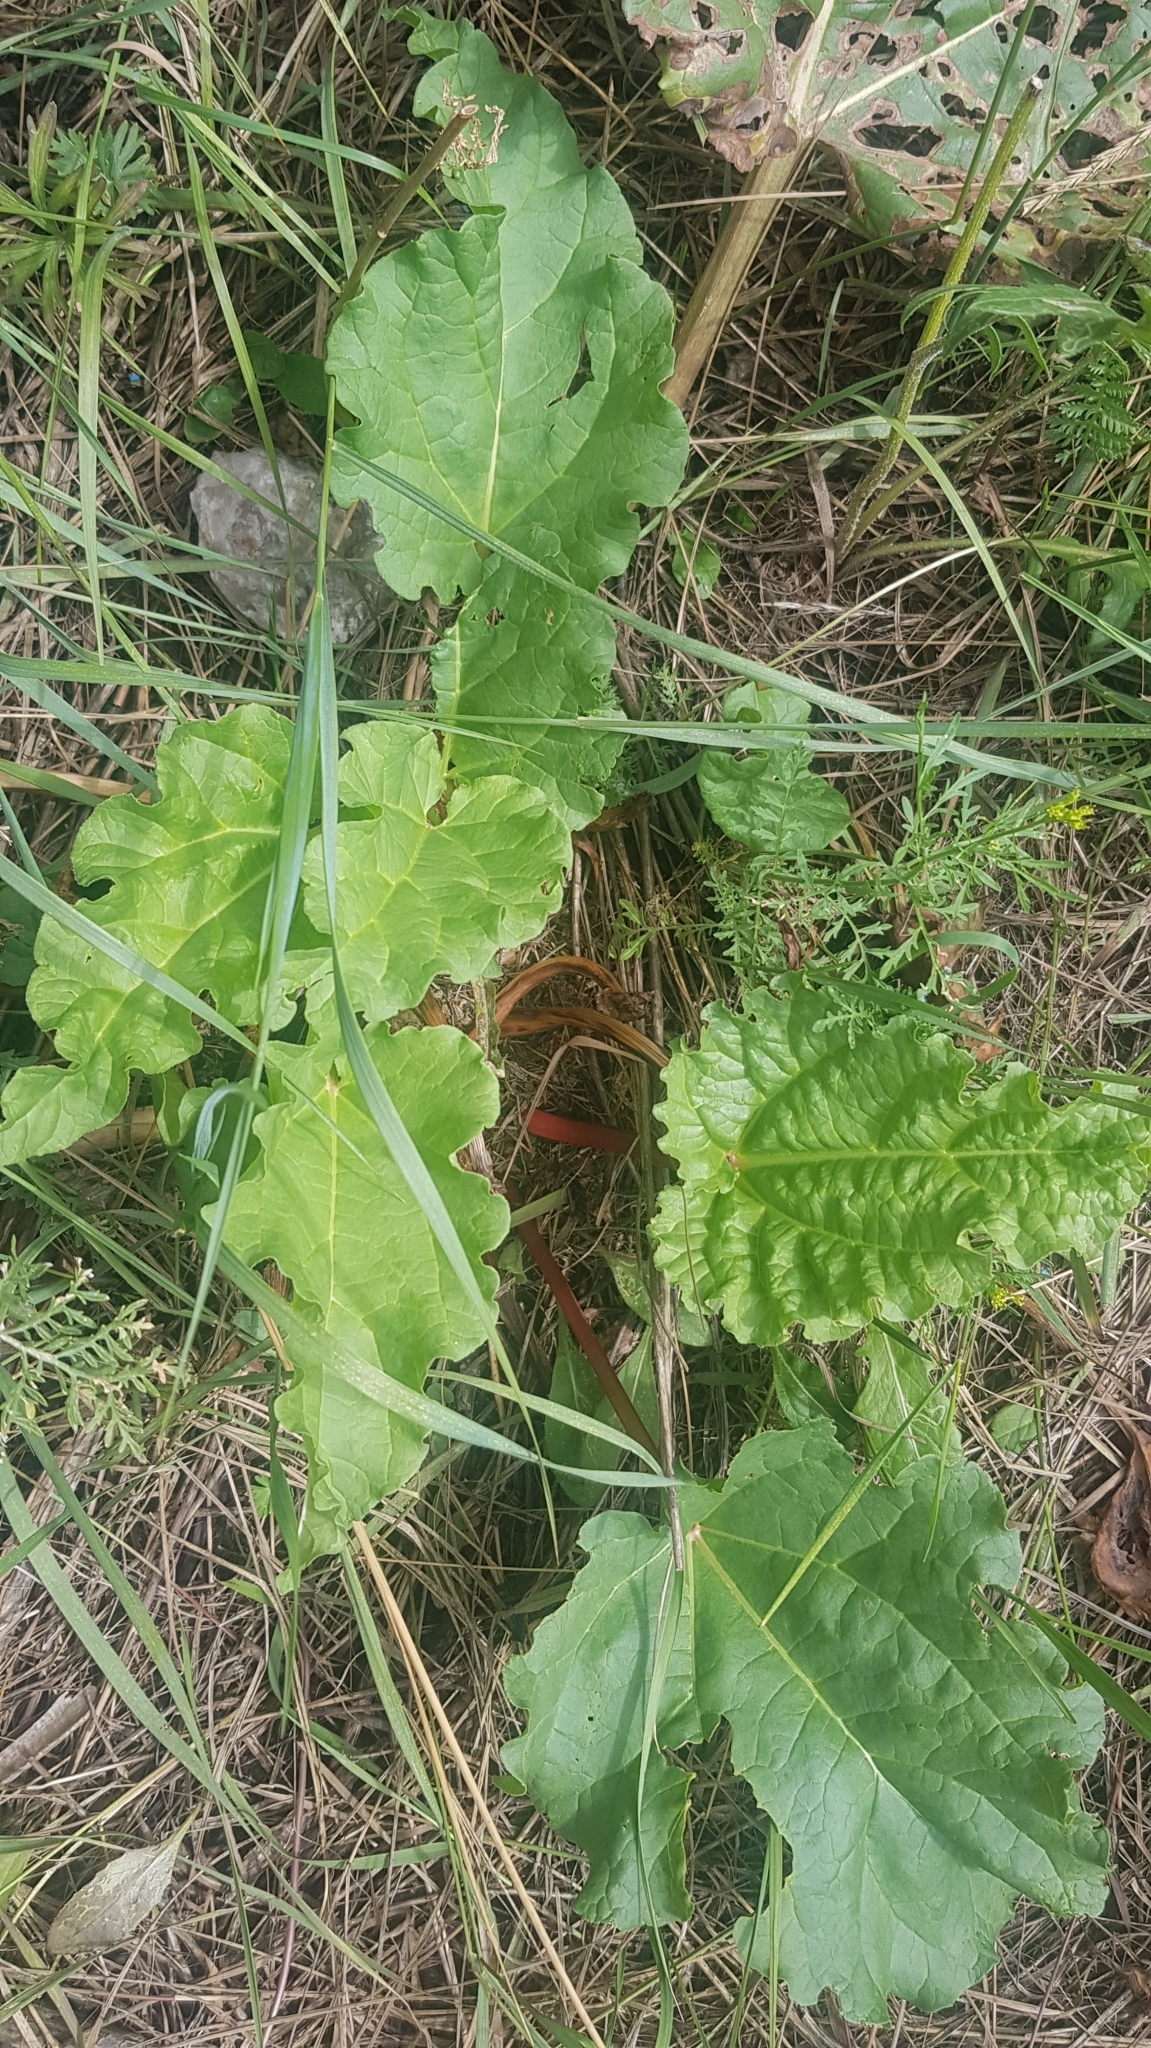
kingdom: Plantae
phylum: Tracheophyta
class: Magnoliopsida
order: Caryophyllales
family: Polygonaceae
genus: Rheum
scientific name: Rheum rhabarbarum
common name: Garden rhubarb
